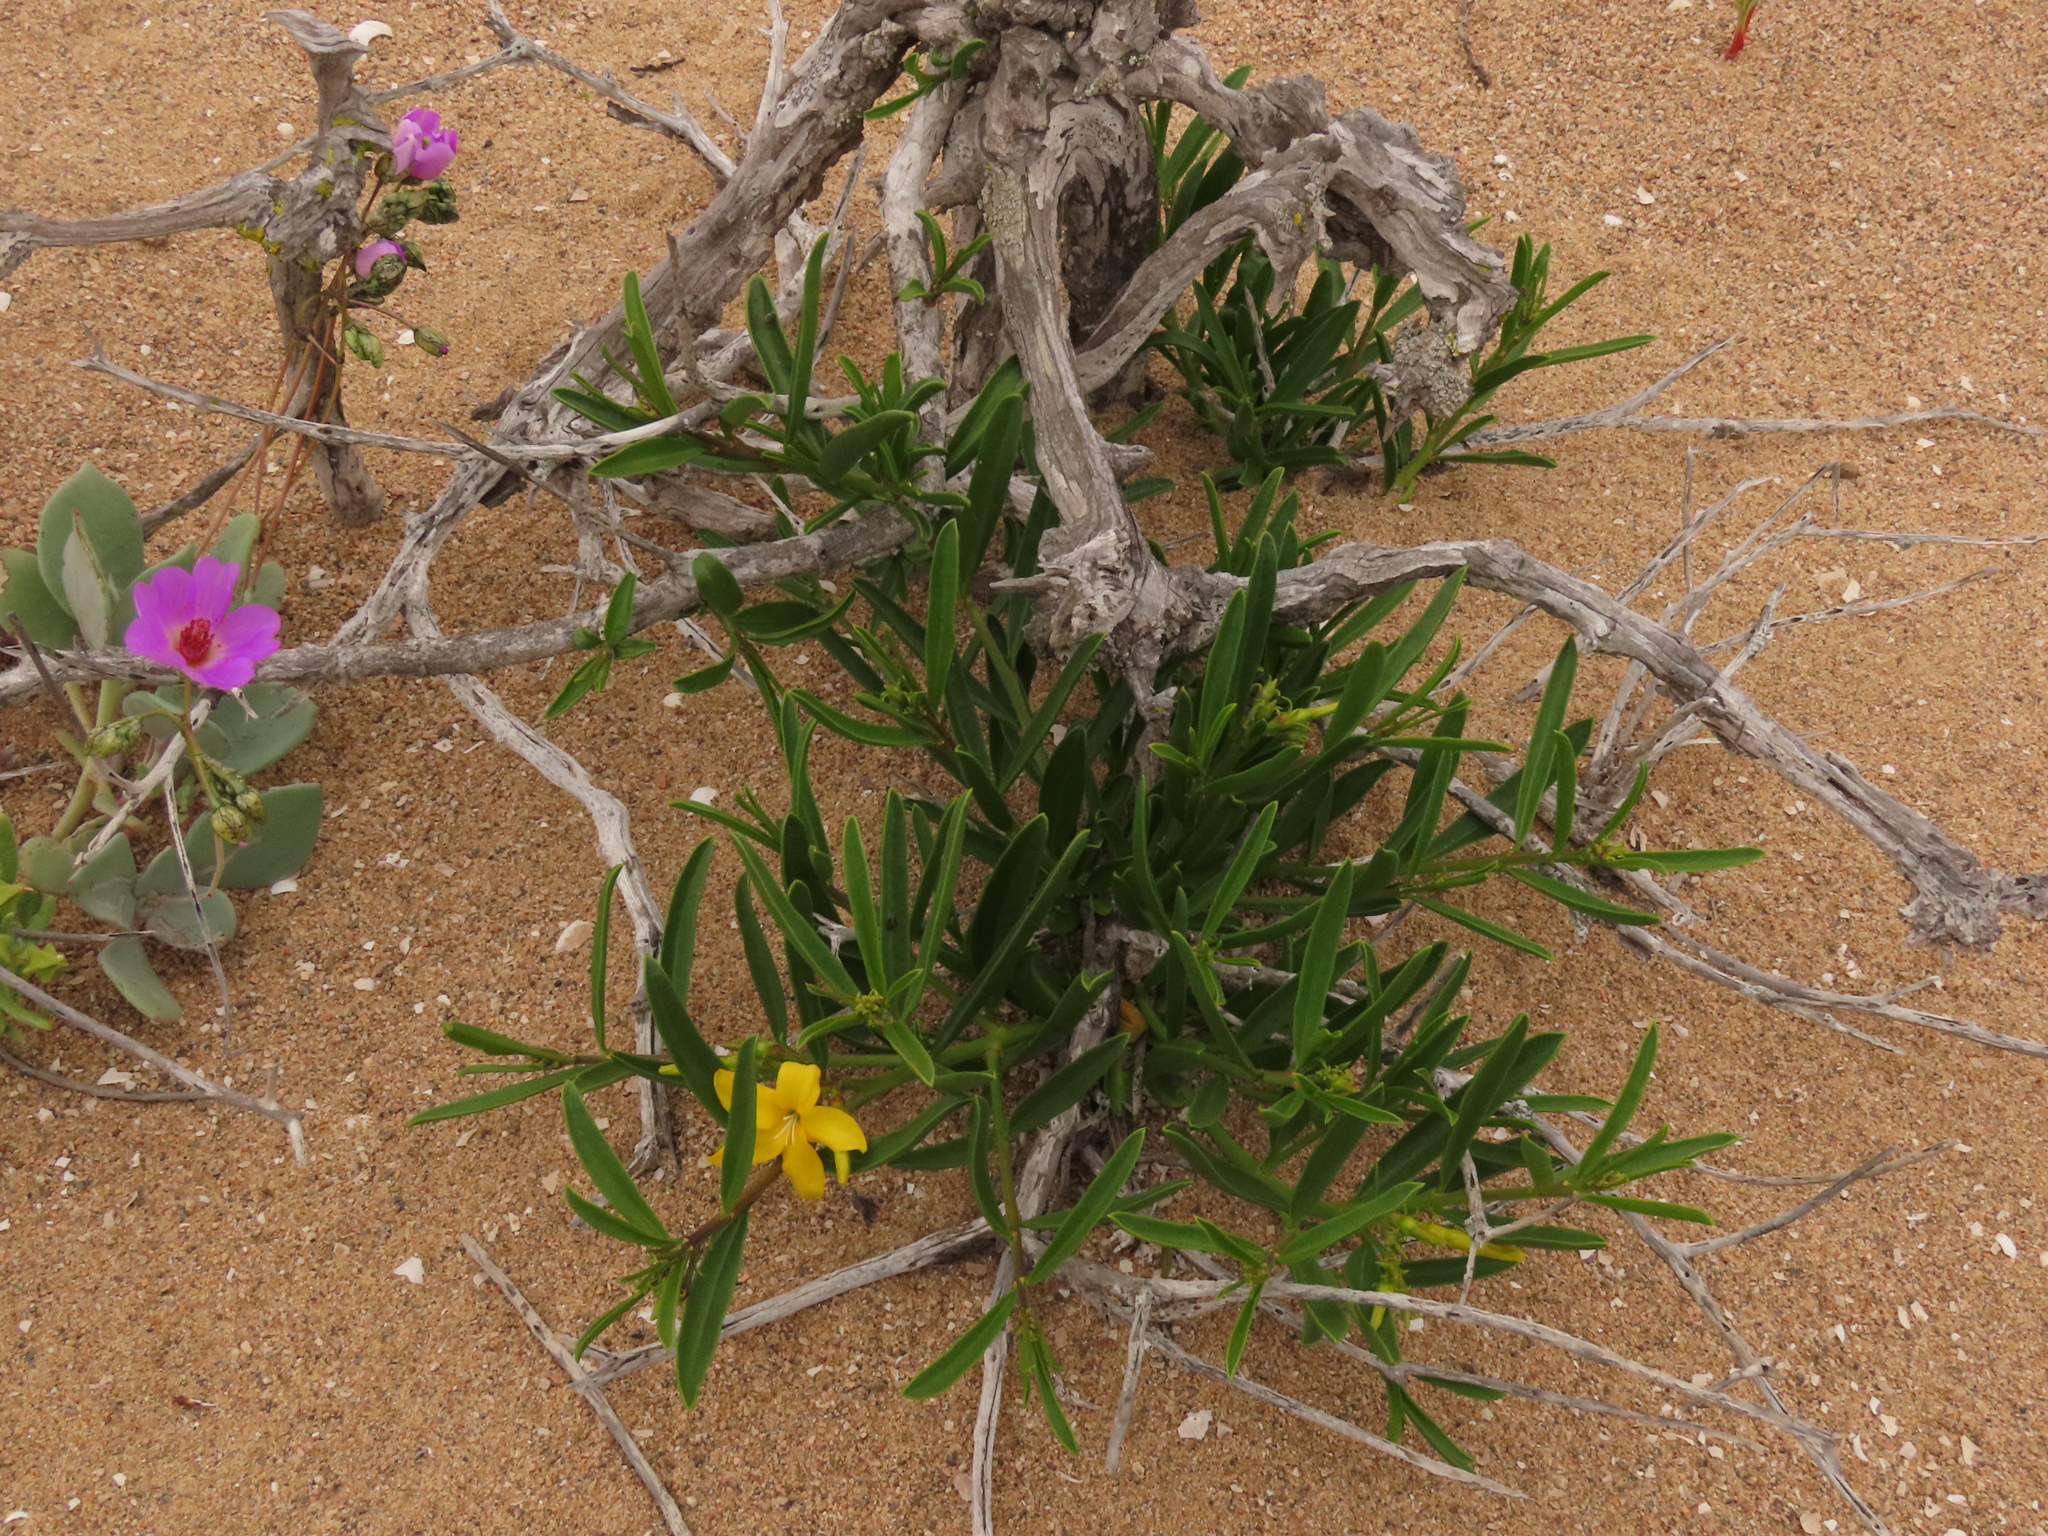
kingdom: Plantae
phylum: Tracheophyta
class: Magnoliopsida
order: Gentianales
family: Apocynaceae
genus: Skytanthus
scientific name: Skytanthus acutus
